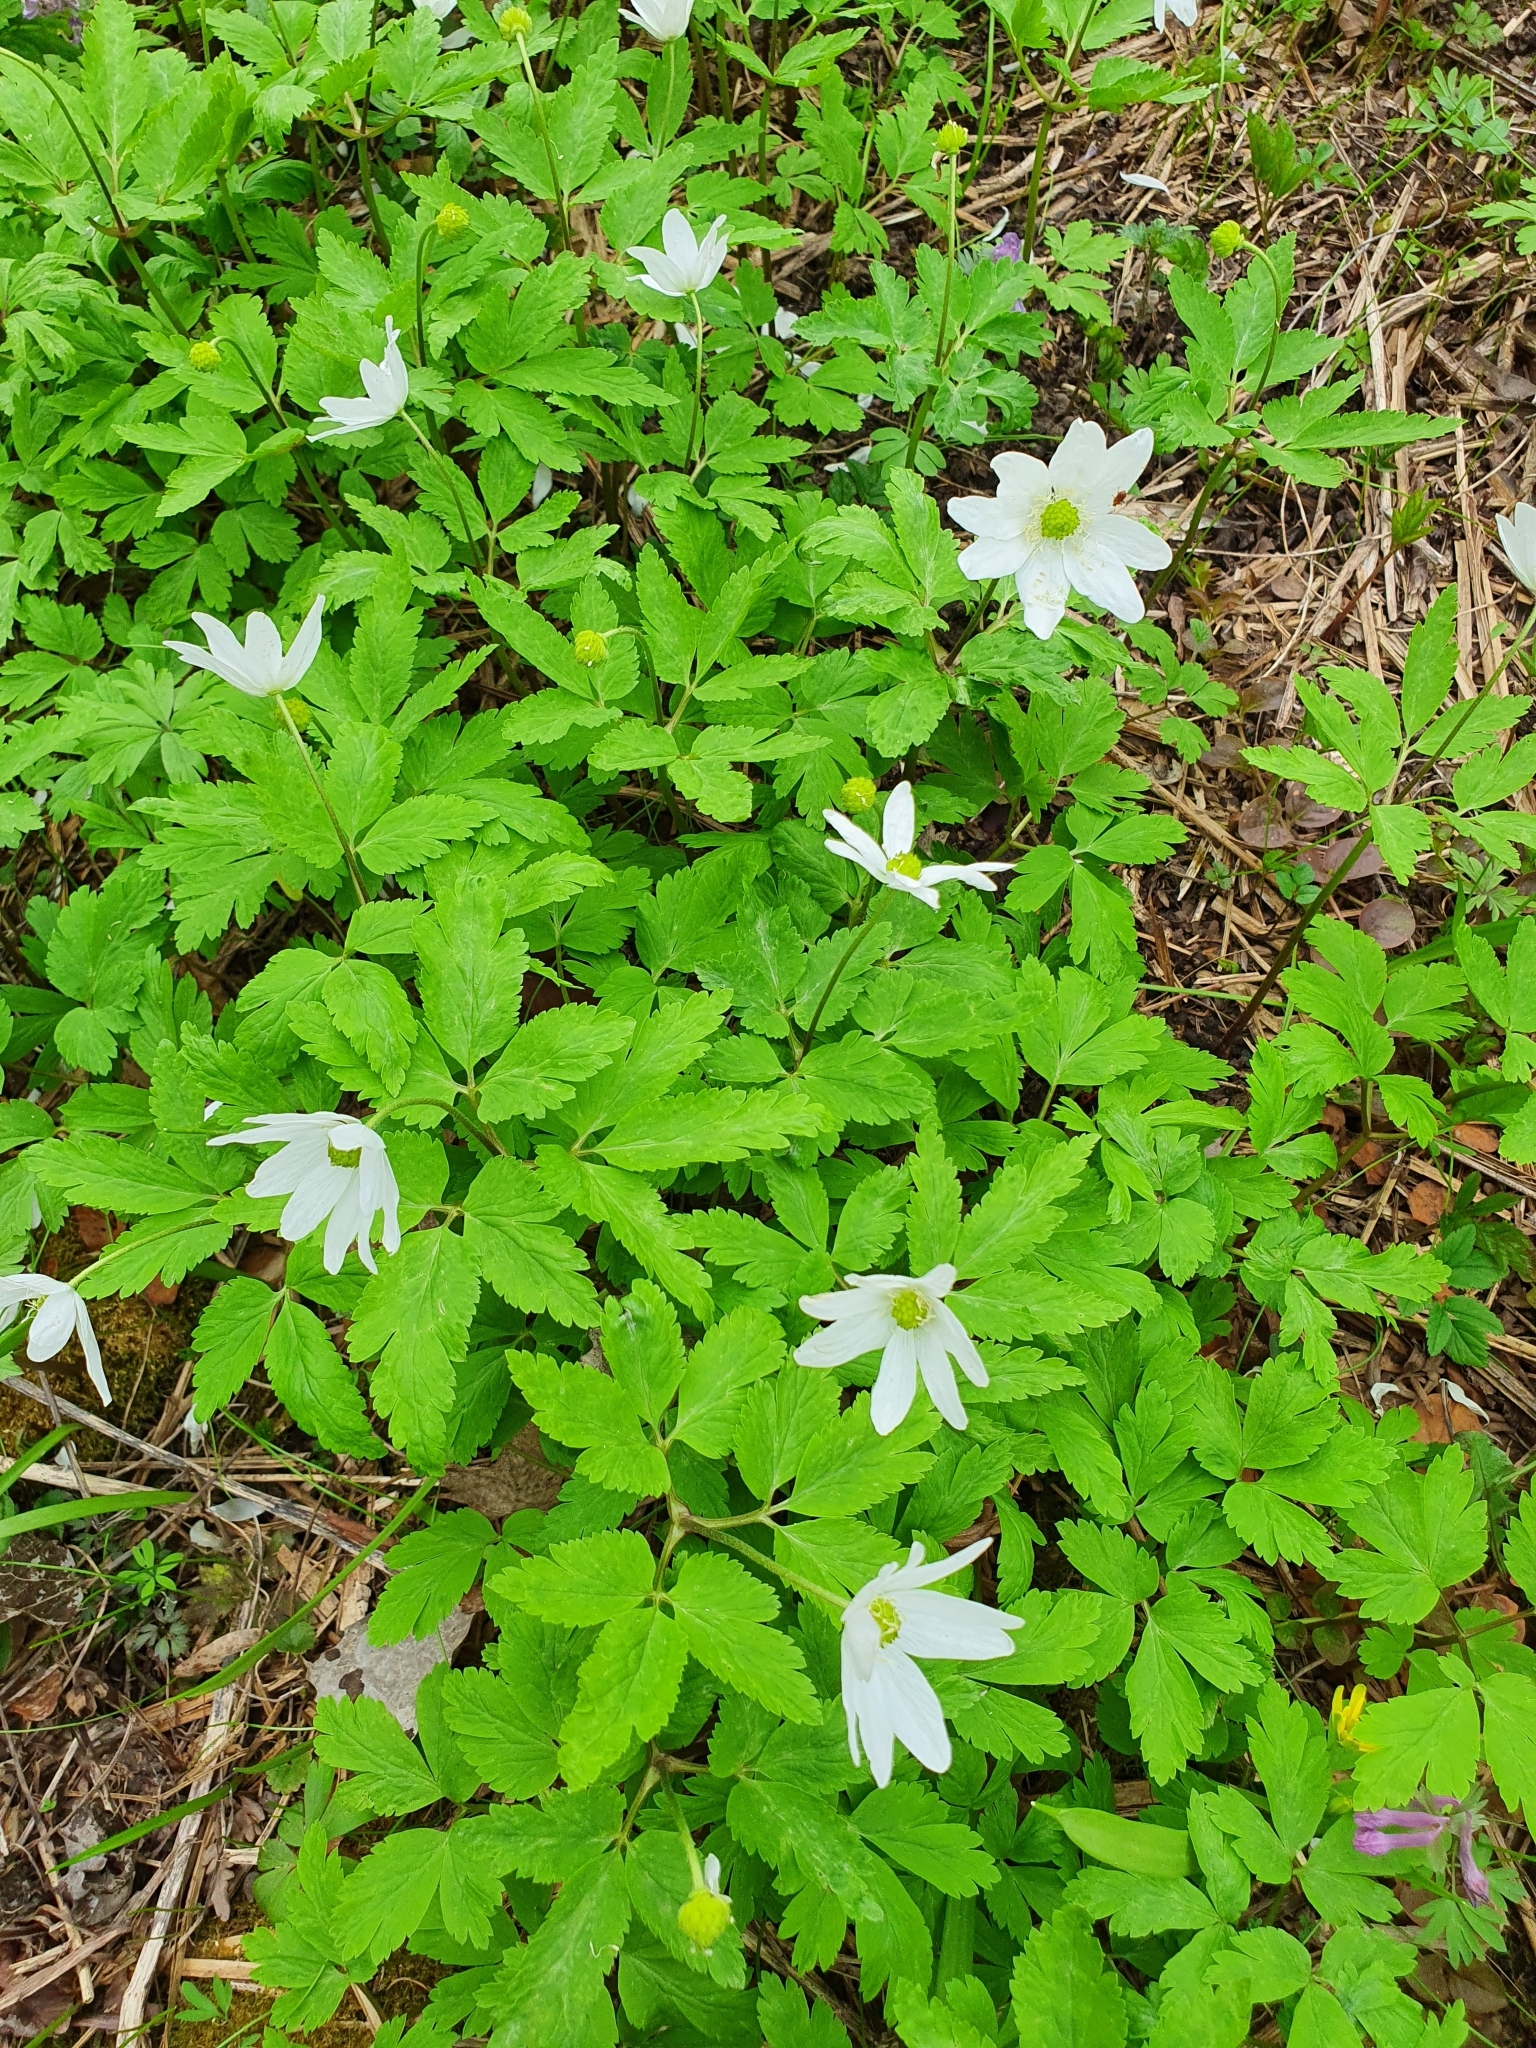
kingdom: Plantae
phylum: Tracheophyta
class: Magnoliopsida
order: Ranunculales
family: Ranunculaceae
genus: Anemone
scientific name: Anemone altaica
